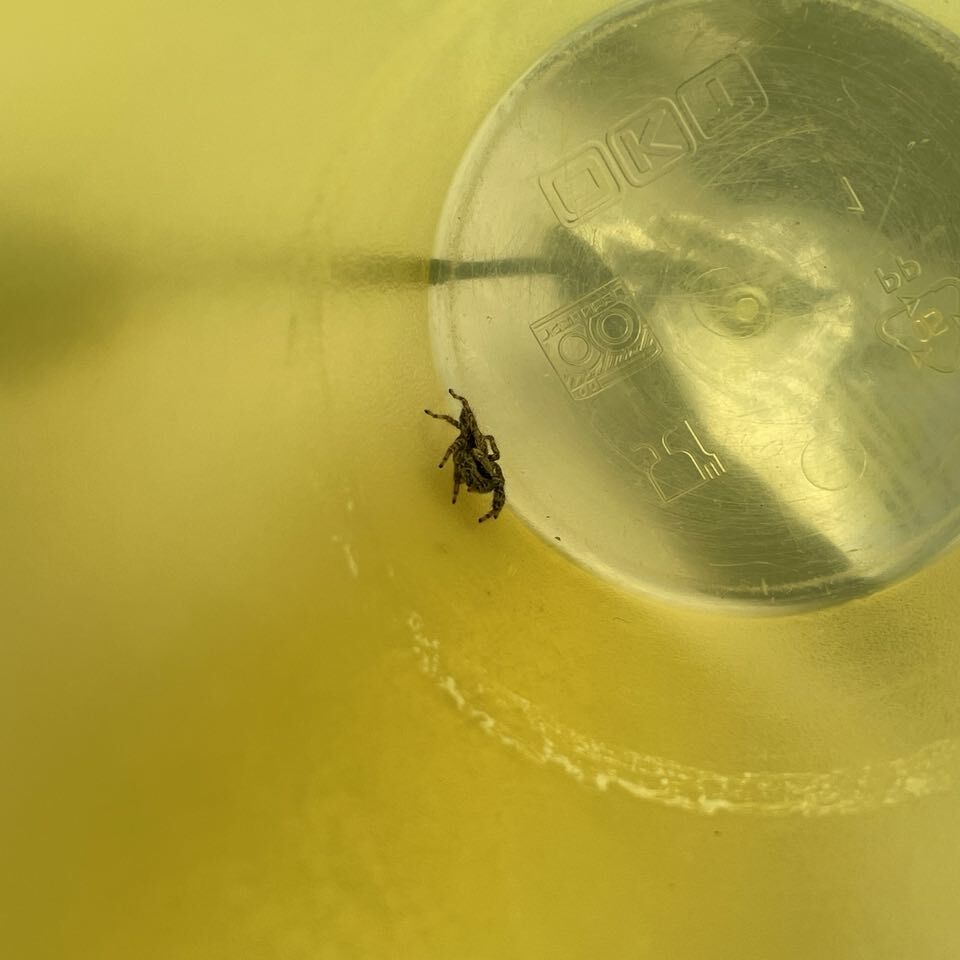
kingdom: Animalia
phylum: Arthropoda
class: Arachnida
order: Araneae
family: Salticidae
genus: Marpissa
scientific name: Marpissa muscosa
